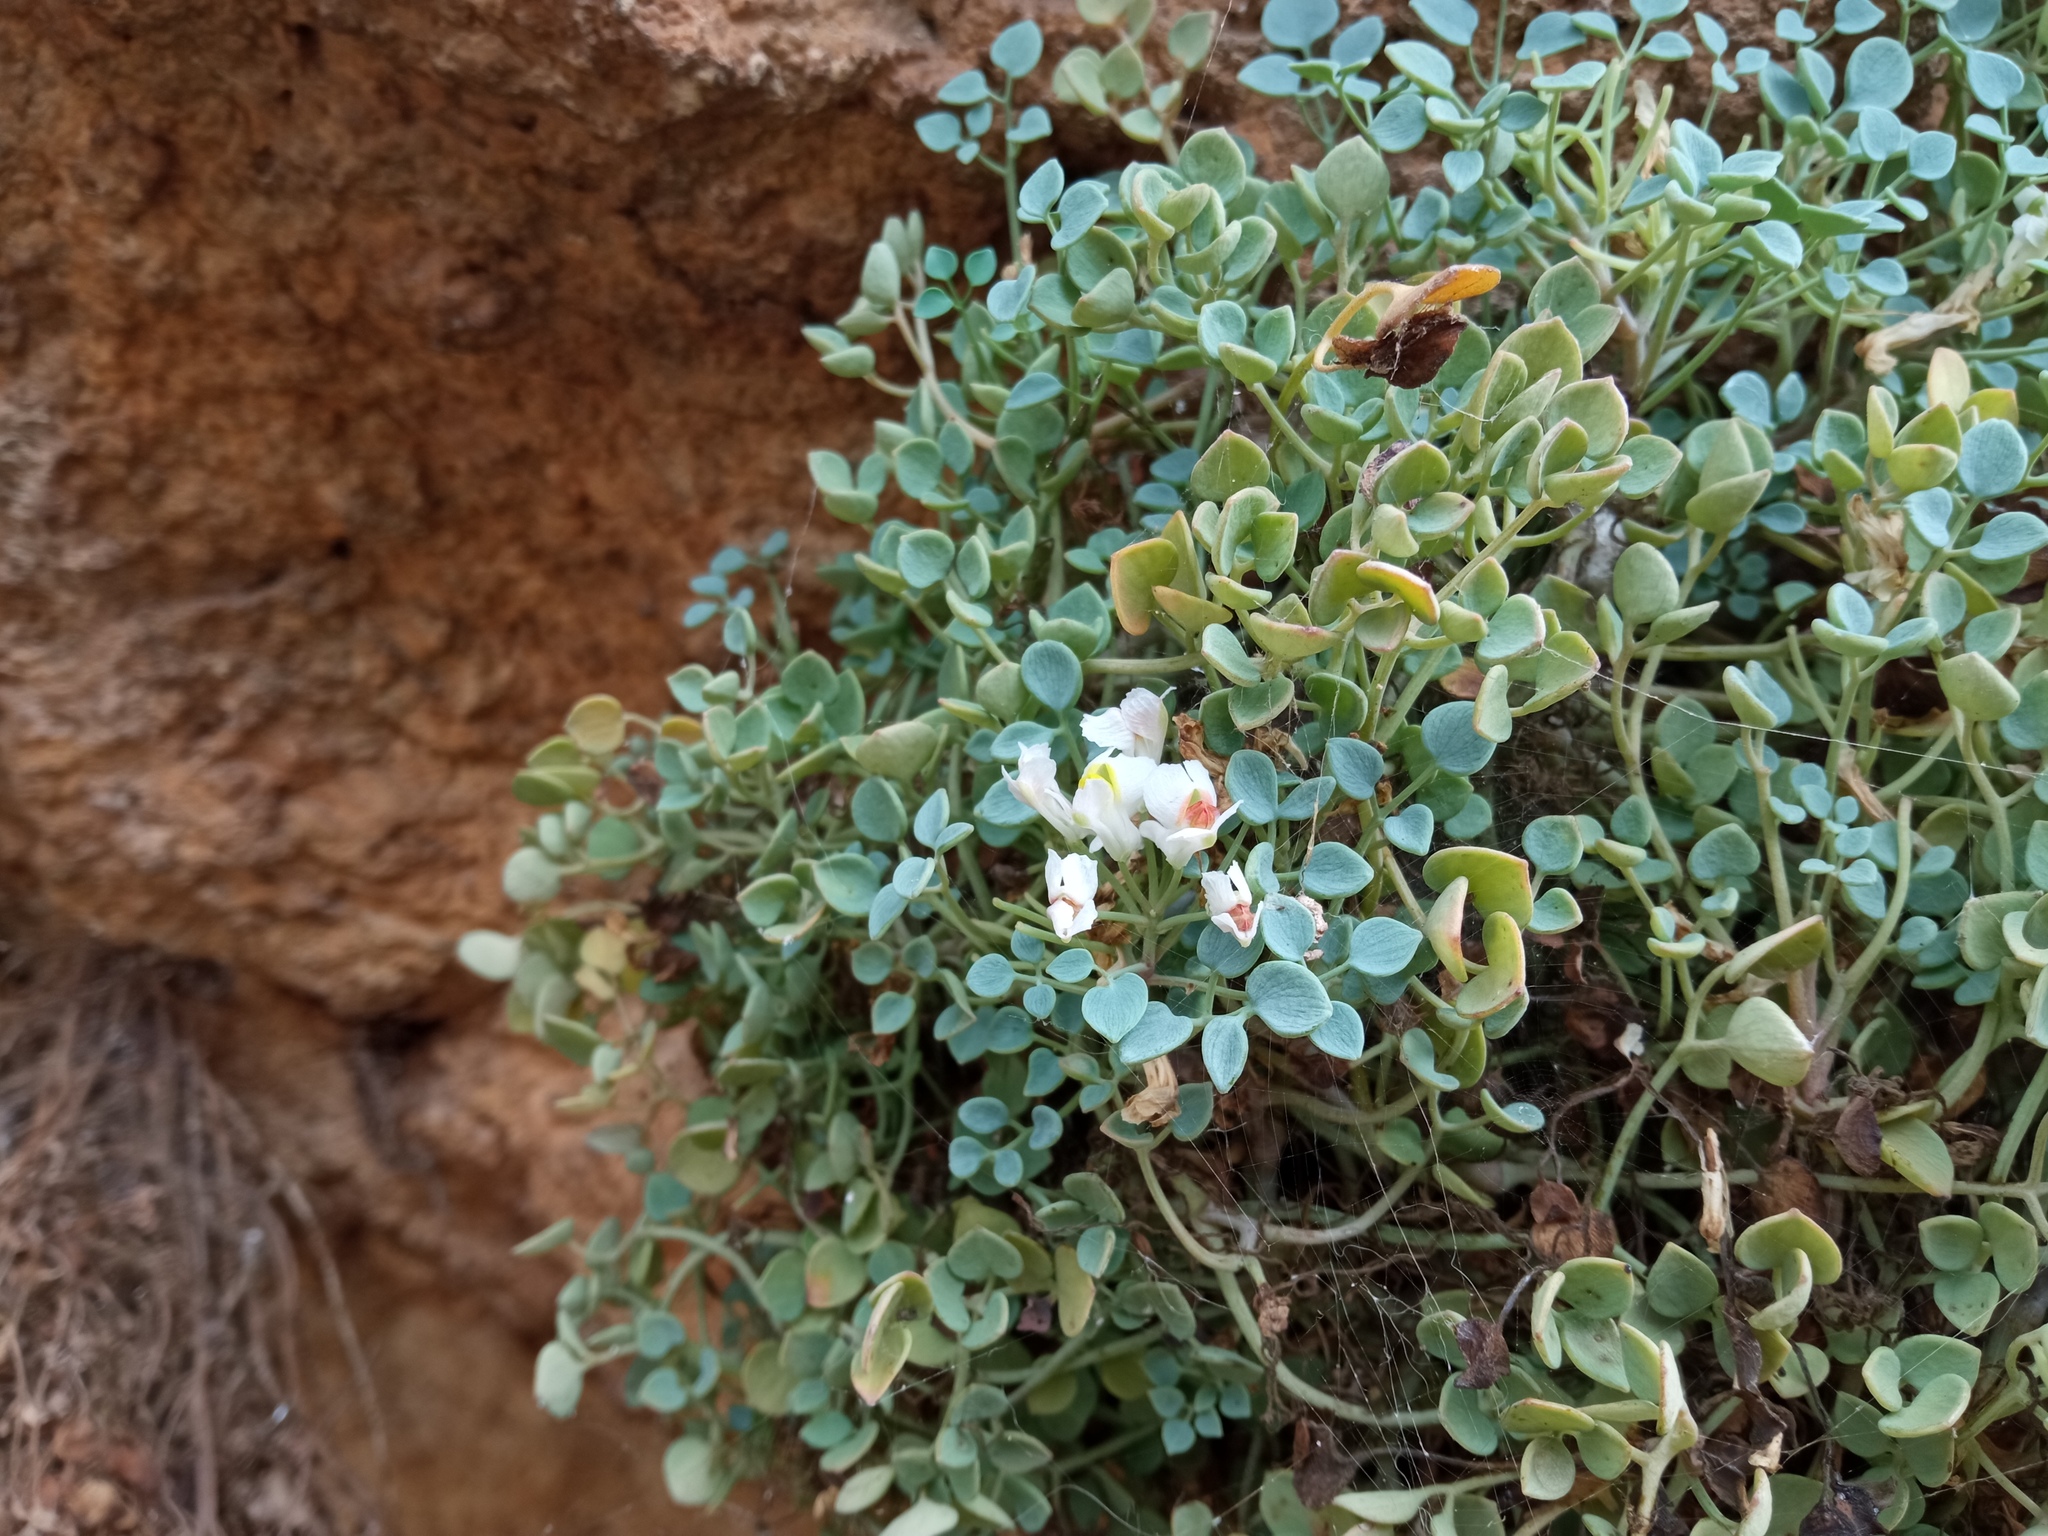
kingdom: Plantae
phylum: Tracheophyta
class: Magnoliopsida
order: Ranunculales
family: Papaveraceae
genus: Sarcocapnos
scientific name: Sarcocapnos enneaphylla
